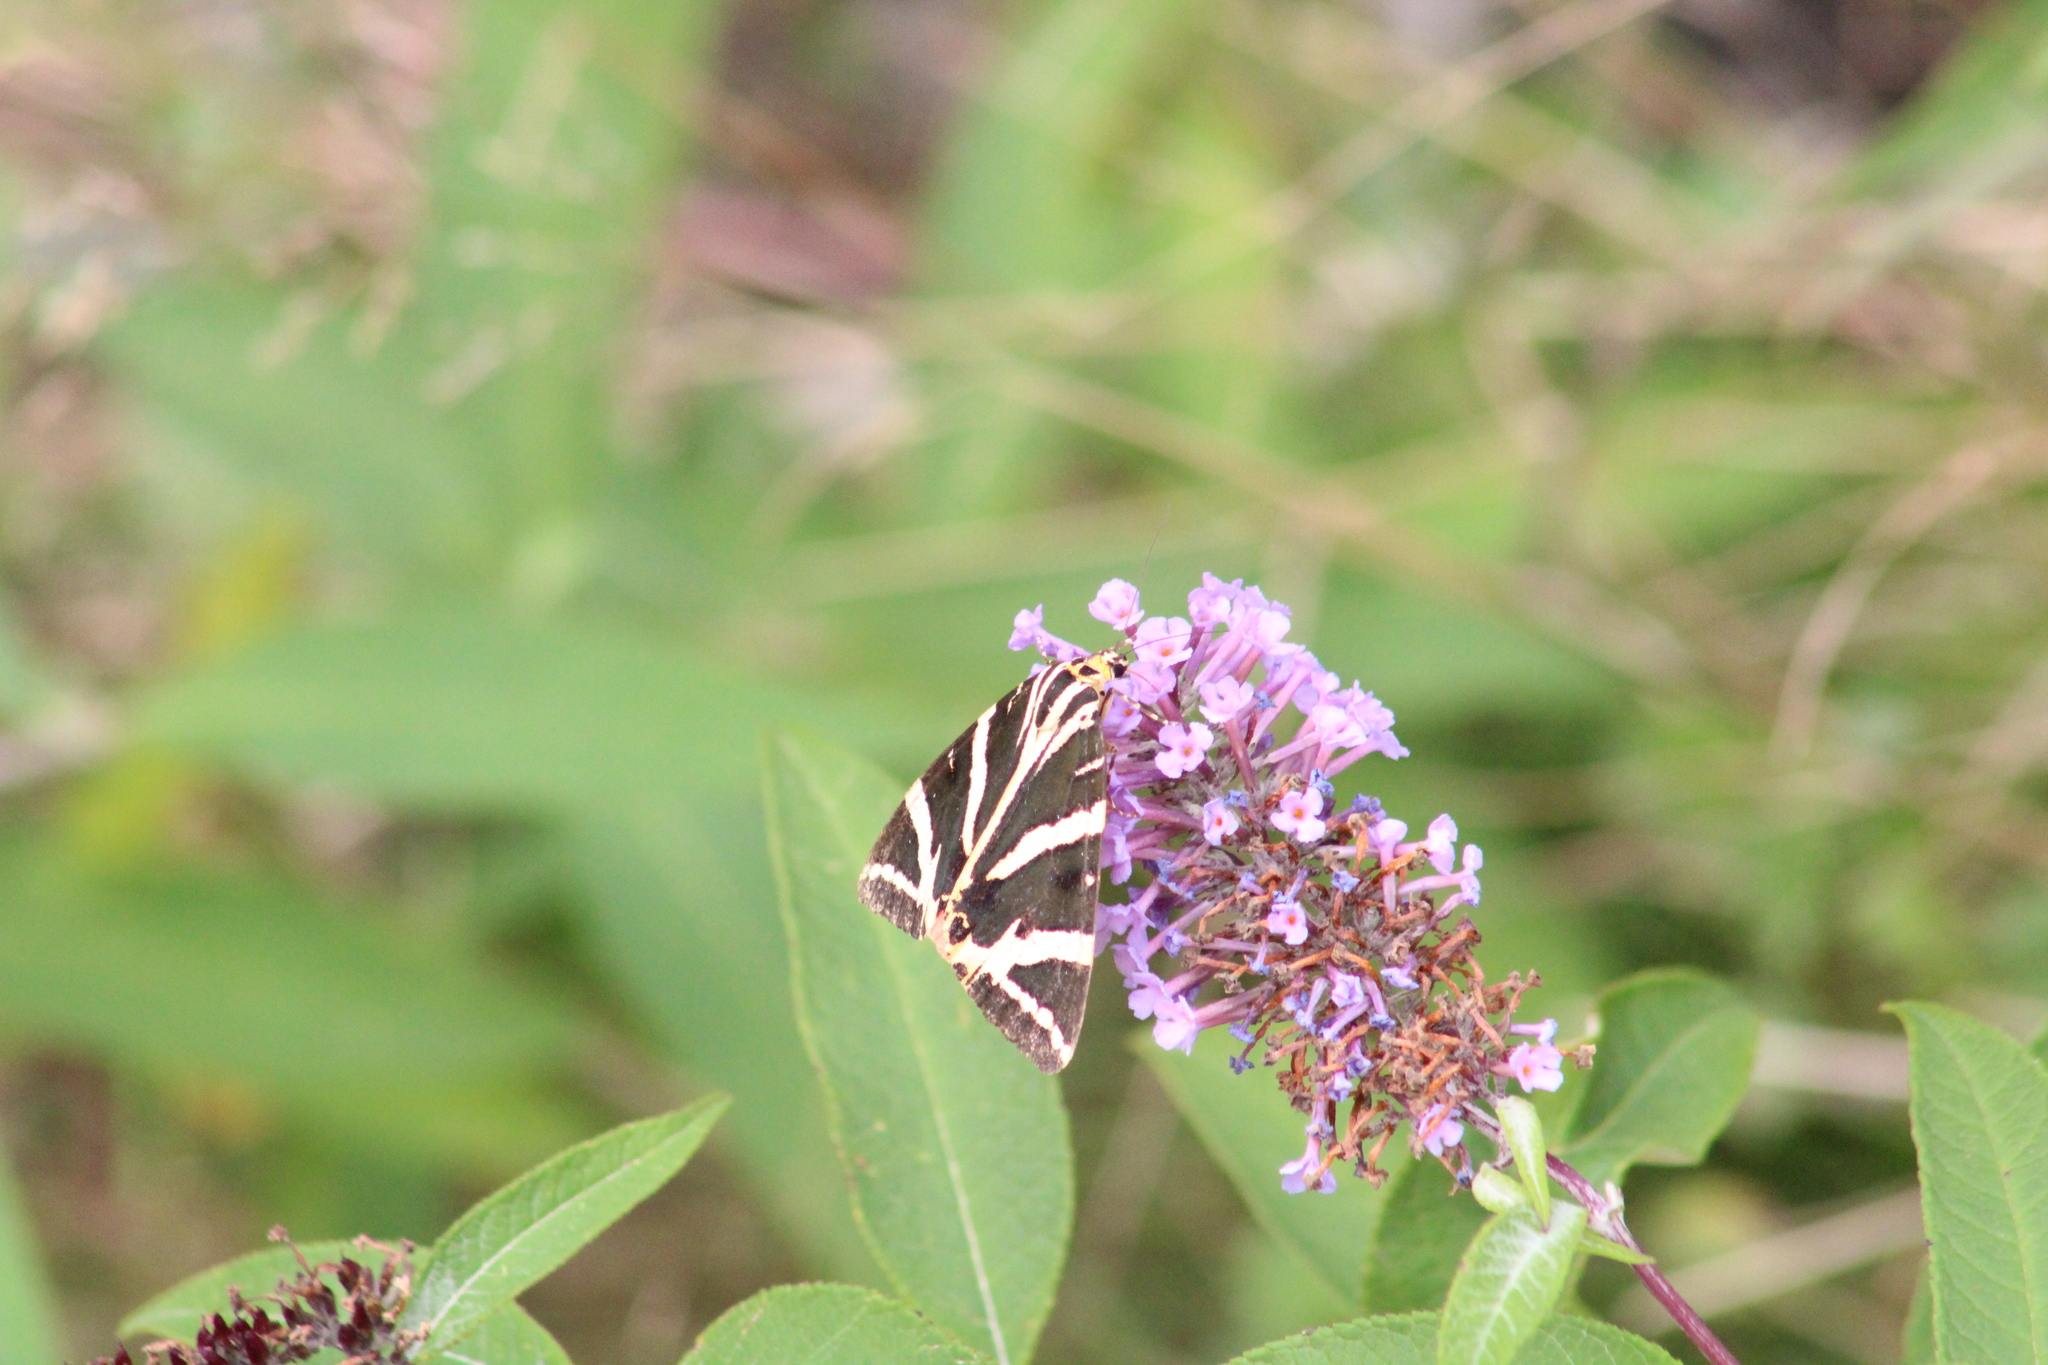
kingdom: Animalia
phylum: Arthropoda
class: Insecta
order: Lepidoptera
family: Erebidae
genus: Euplagia
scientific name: Euplagia quadripunctaria
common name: Jersey tiger
